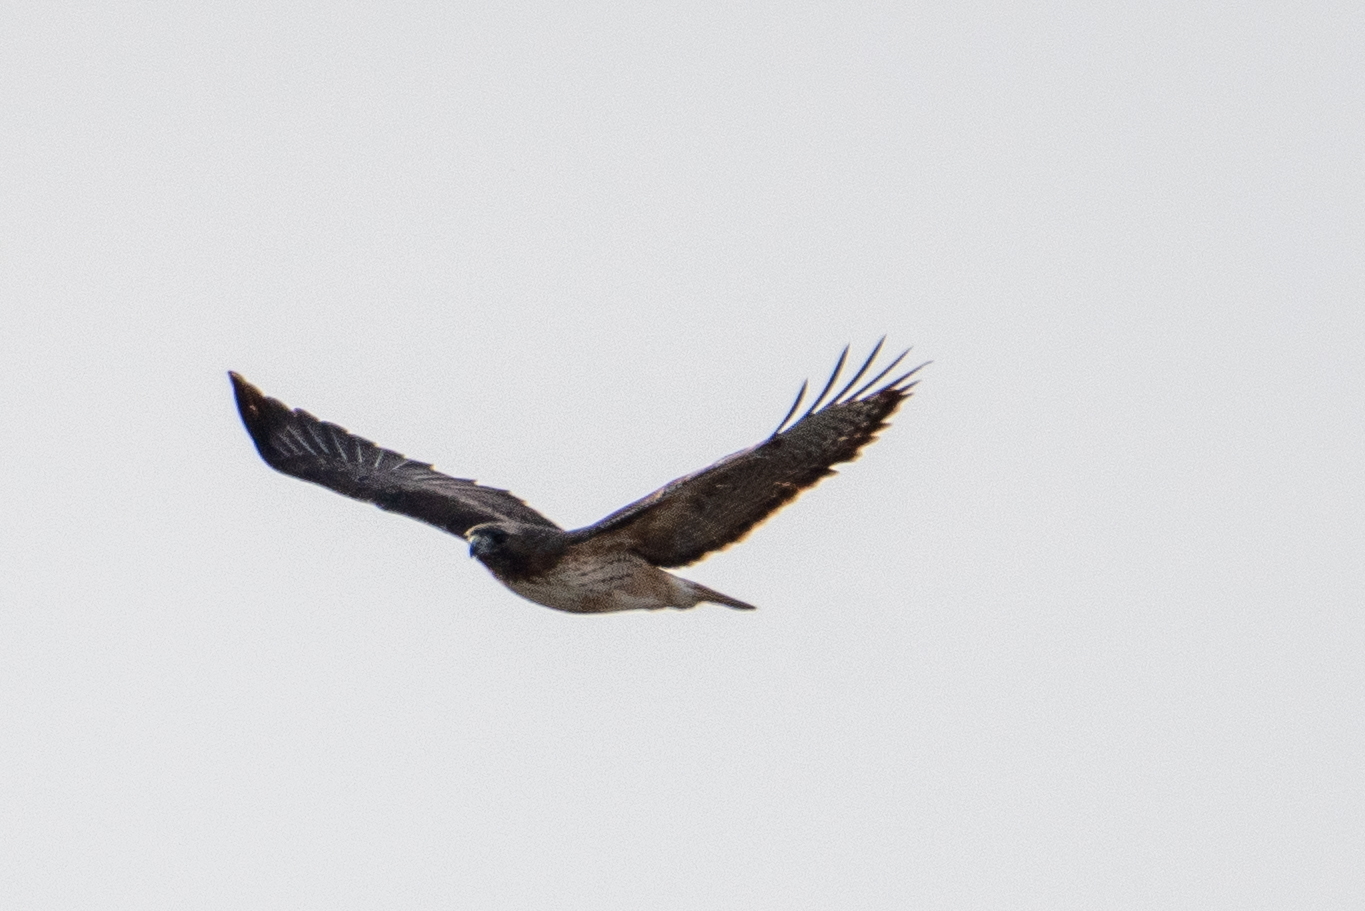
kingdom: Animalia
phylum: Chordata
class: Aves
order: Accipitriformes
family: Accipitridae
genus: Buteo
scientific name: Buteo jamaicensis
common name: Red-tailed hawk
